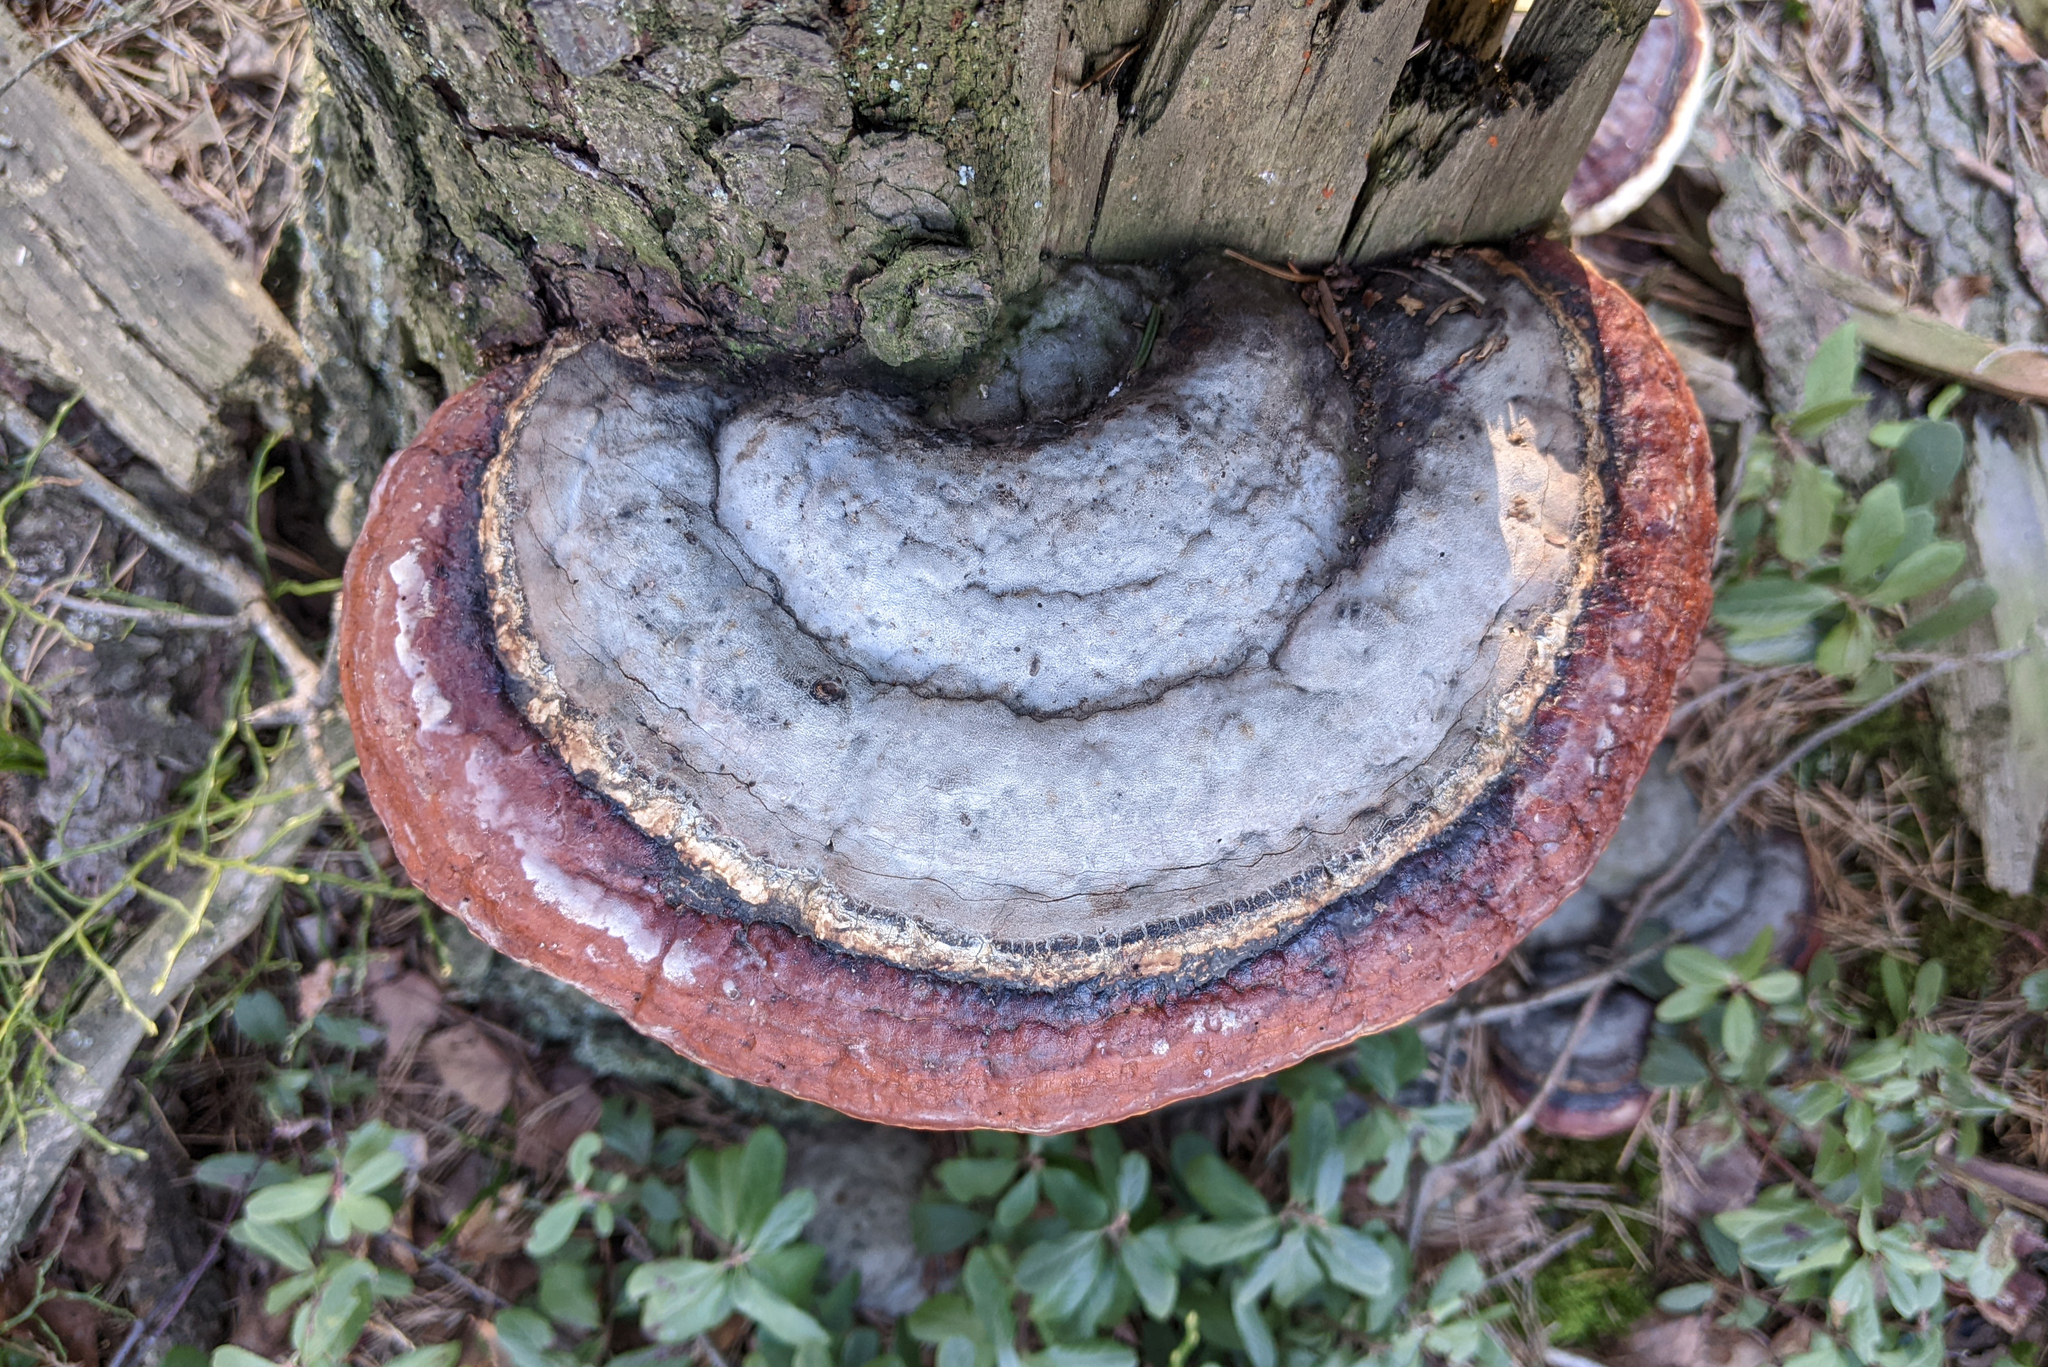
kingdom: Fungi
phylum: Basidiomycota
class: Agaricomycetes
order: Polyporales
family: Fomitopsidaceae
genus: Fomitopsis
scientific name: Fomitopsis pinicola
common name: Red-belted bracket
